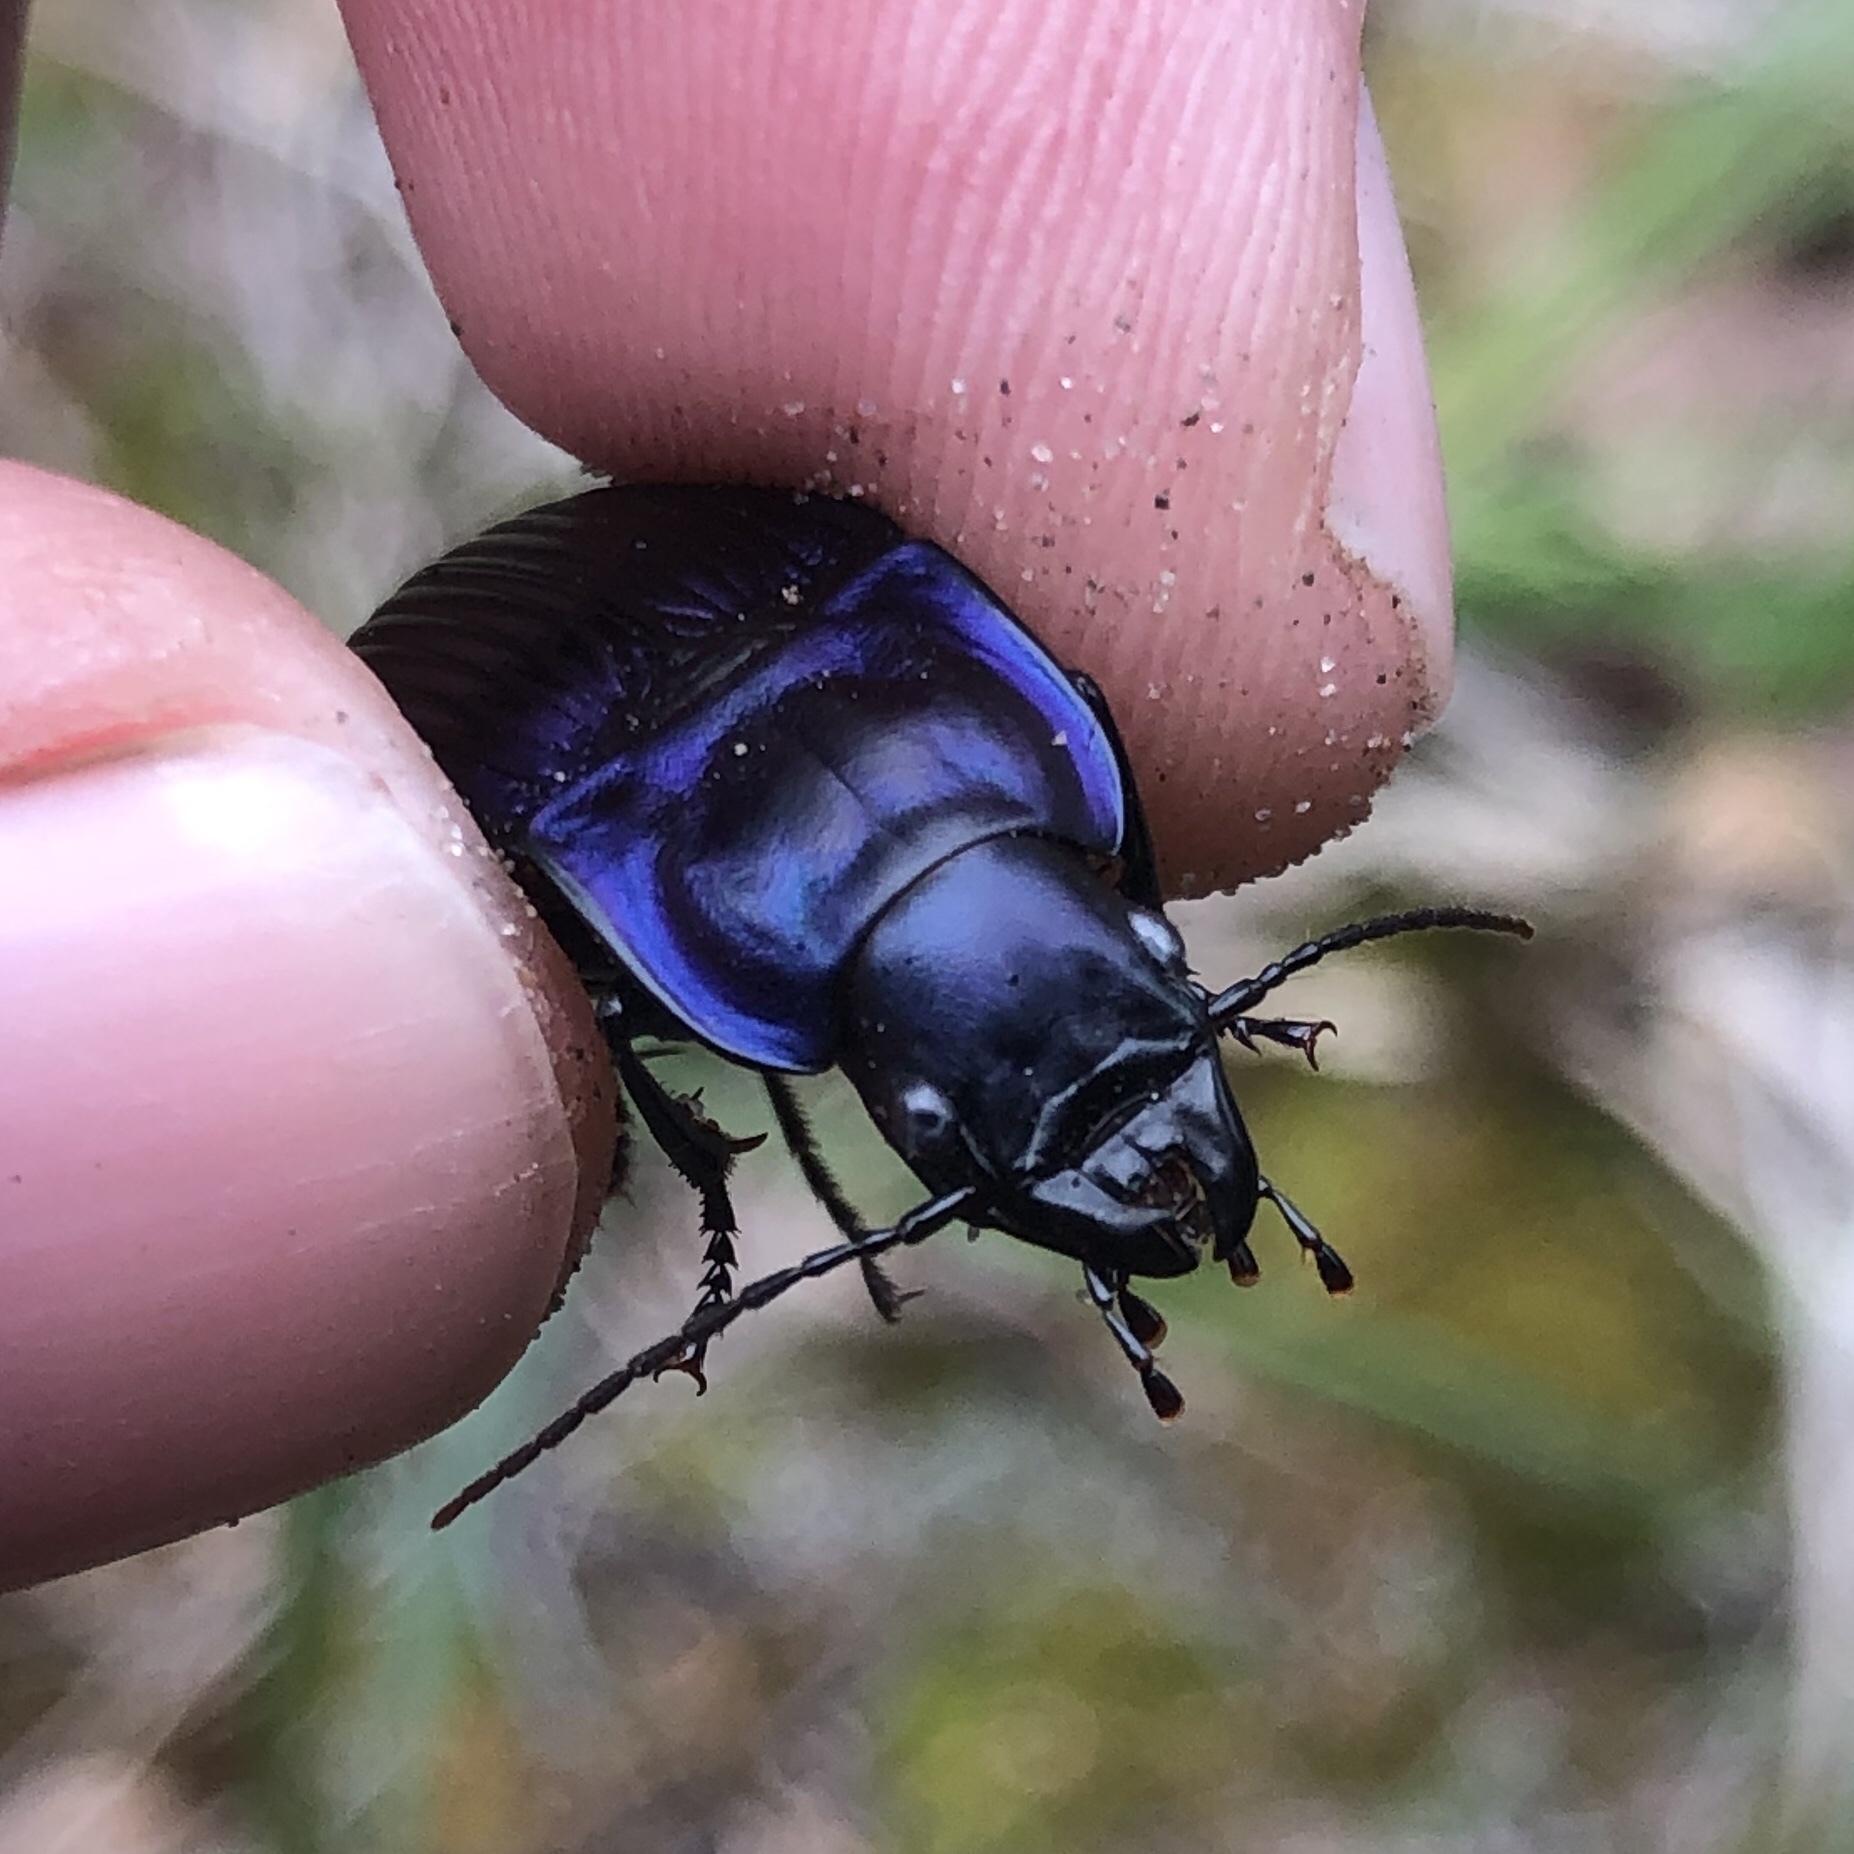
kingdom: Animalia
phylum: Arthropoda
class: Insecta
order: Coleoptera
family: Carabidae
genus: Dicaelus
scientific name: Dicaelus purpuratus
